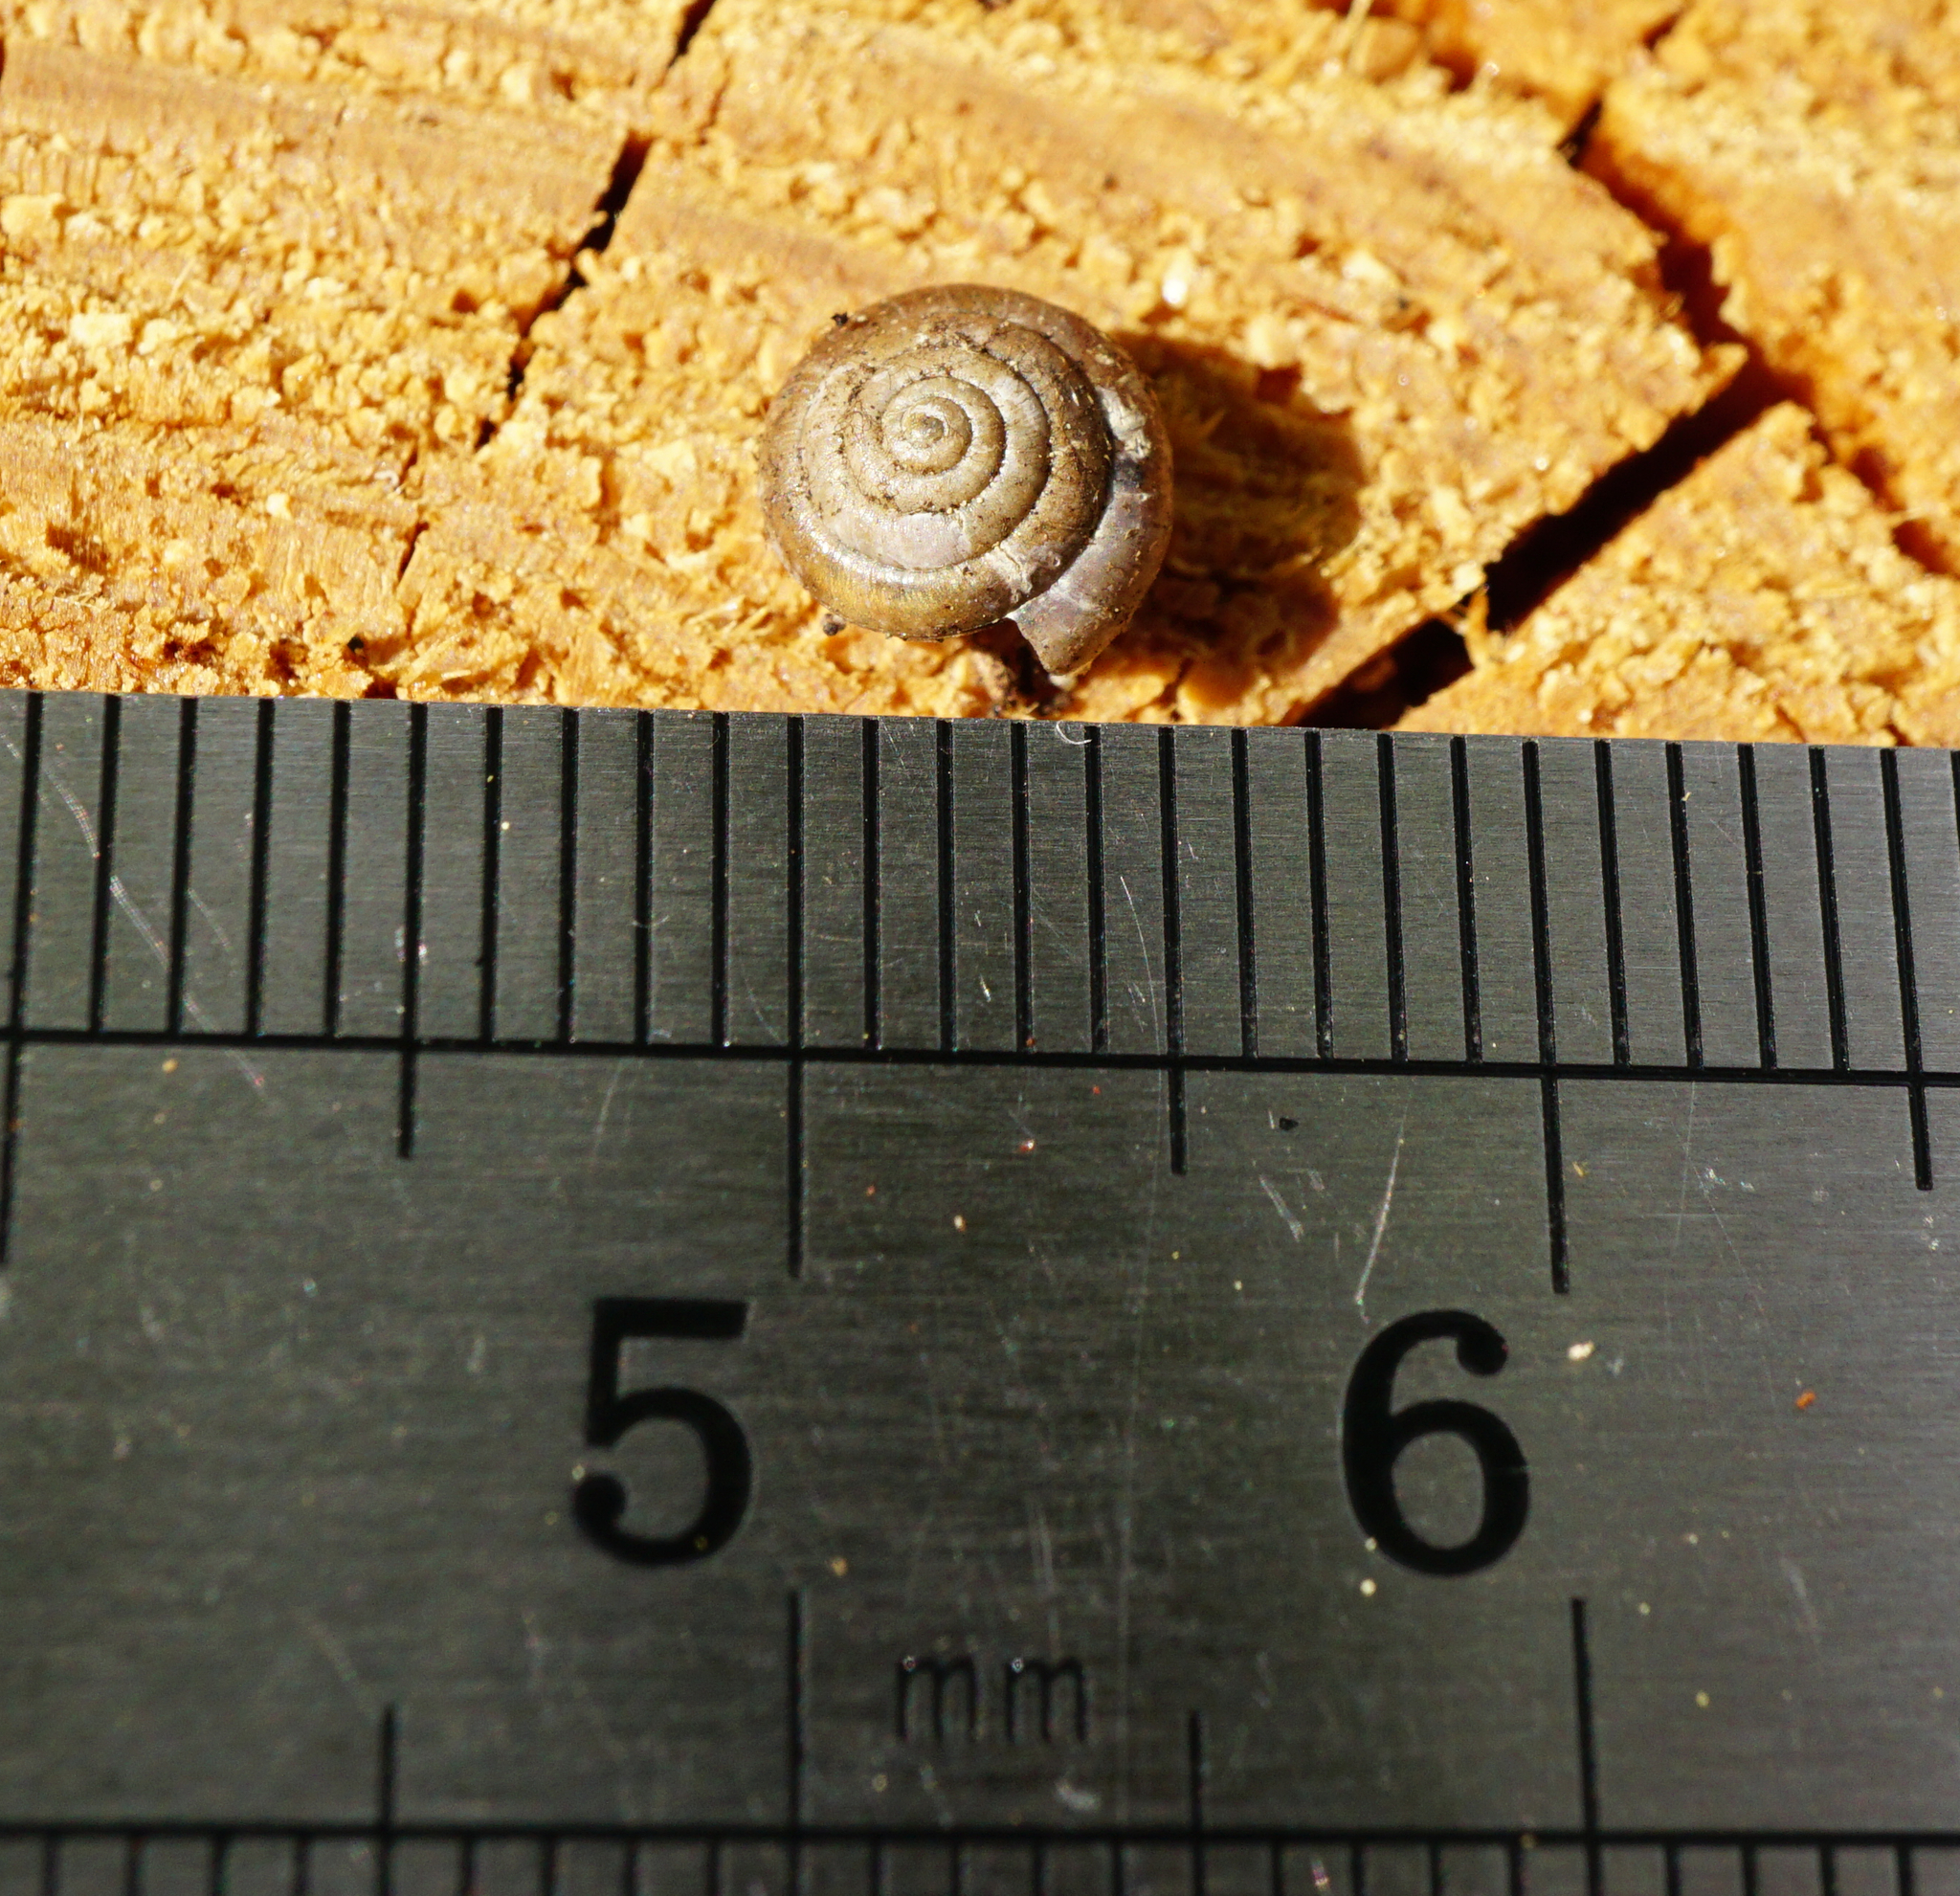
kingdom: Animalia
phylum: Mollusca
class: Gastropoda
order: Stylommatophora
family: Hygromiidae
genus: Petasina
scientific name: Petasina unidentata
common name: Single-toothed hairysnail
